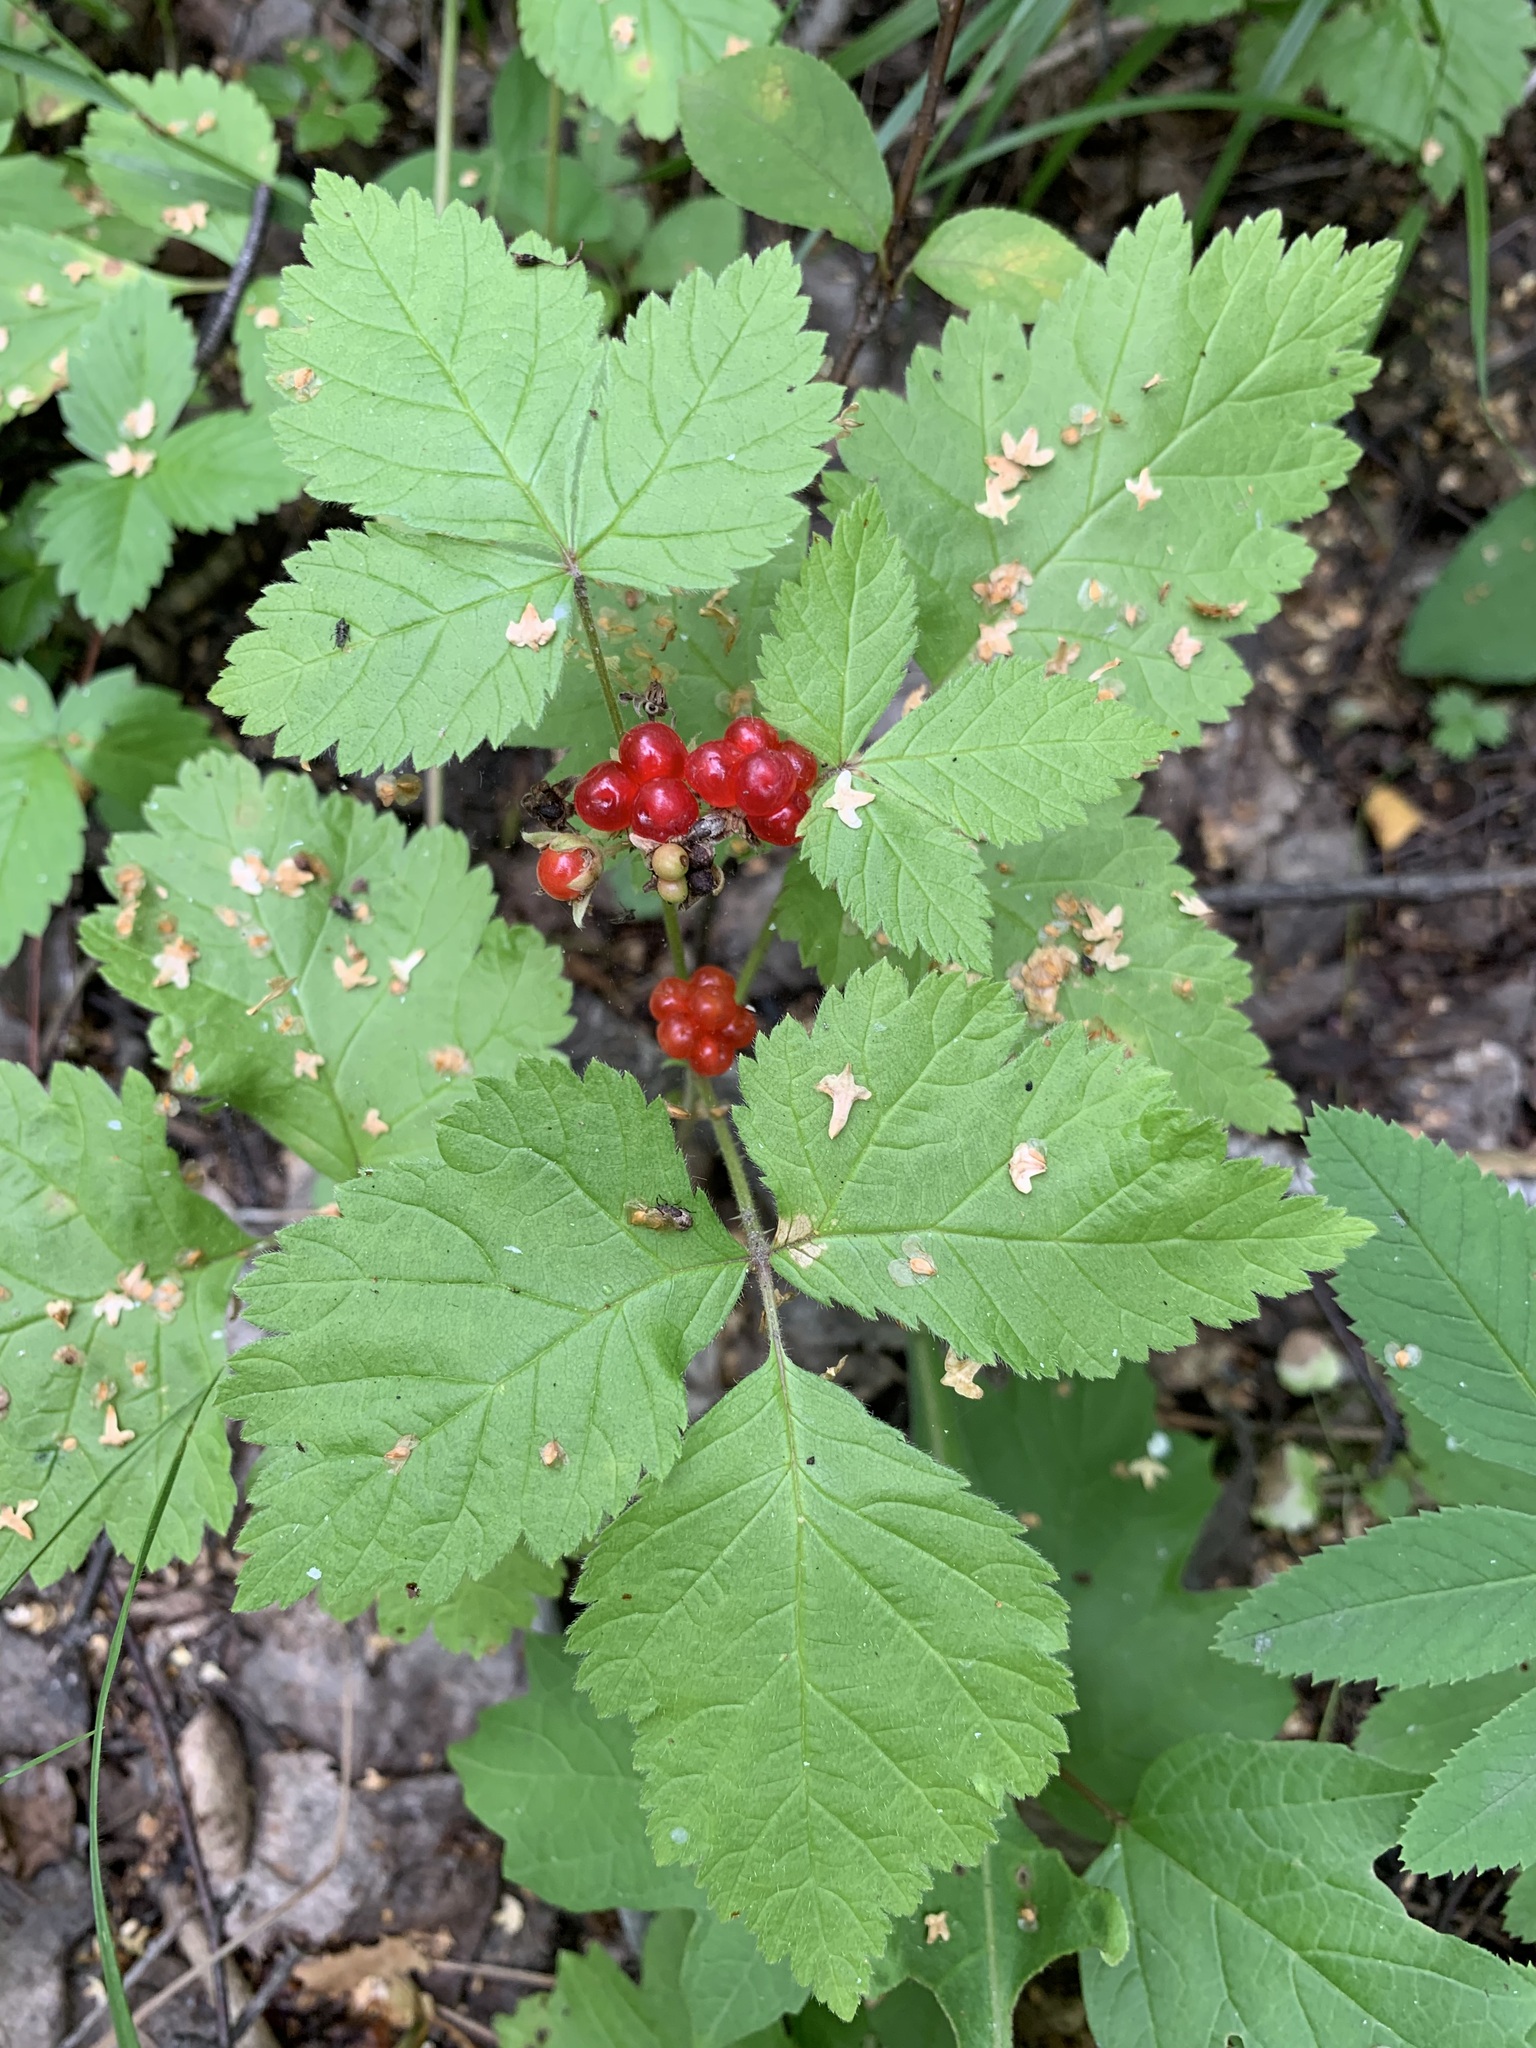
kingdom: Plantae
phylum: Tracheophyta
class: Magnoliopsida
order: Rosales
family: Rosaceae
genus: Rubus
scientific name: Rubus saxatilis
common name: Stone bramble
